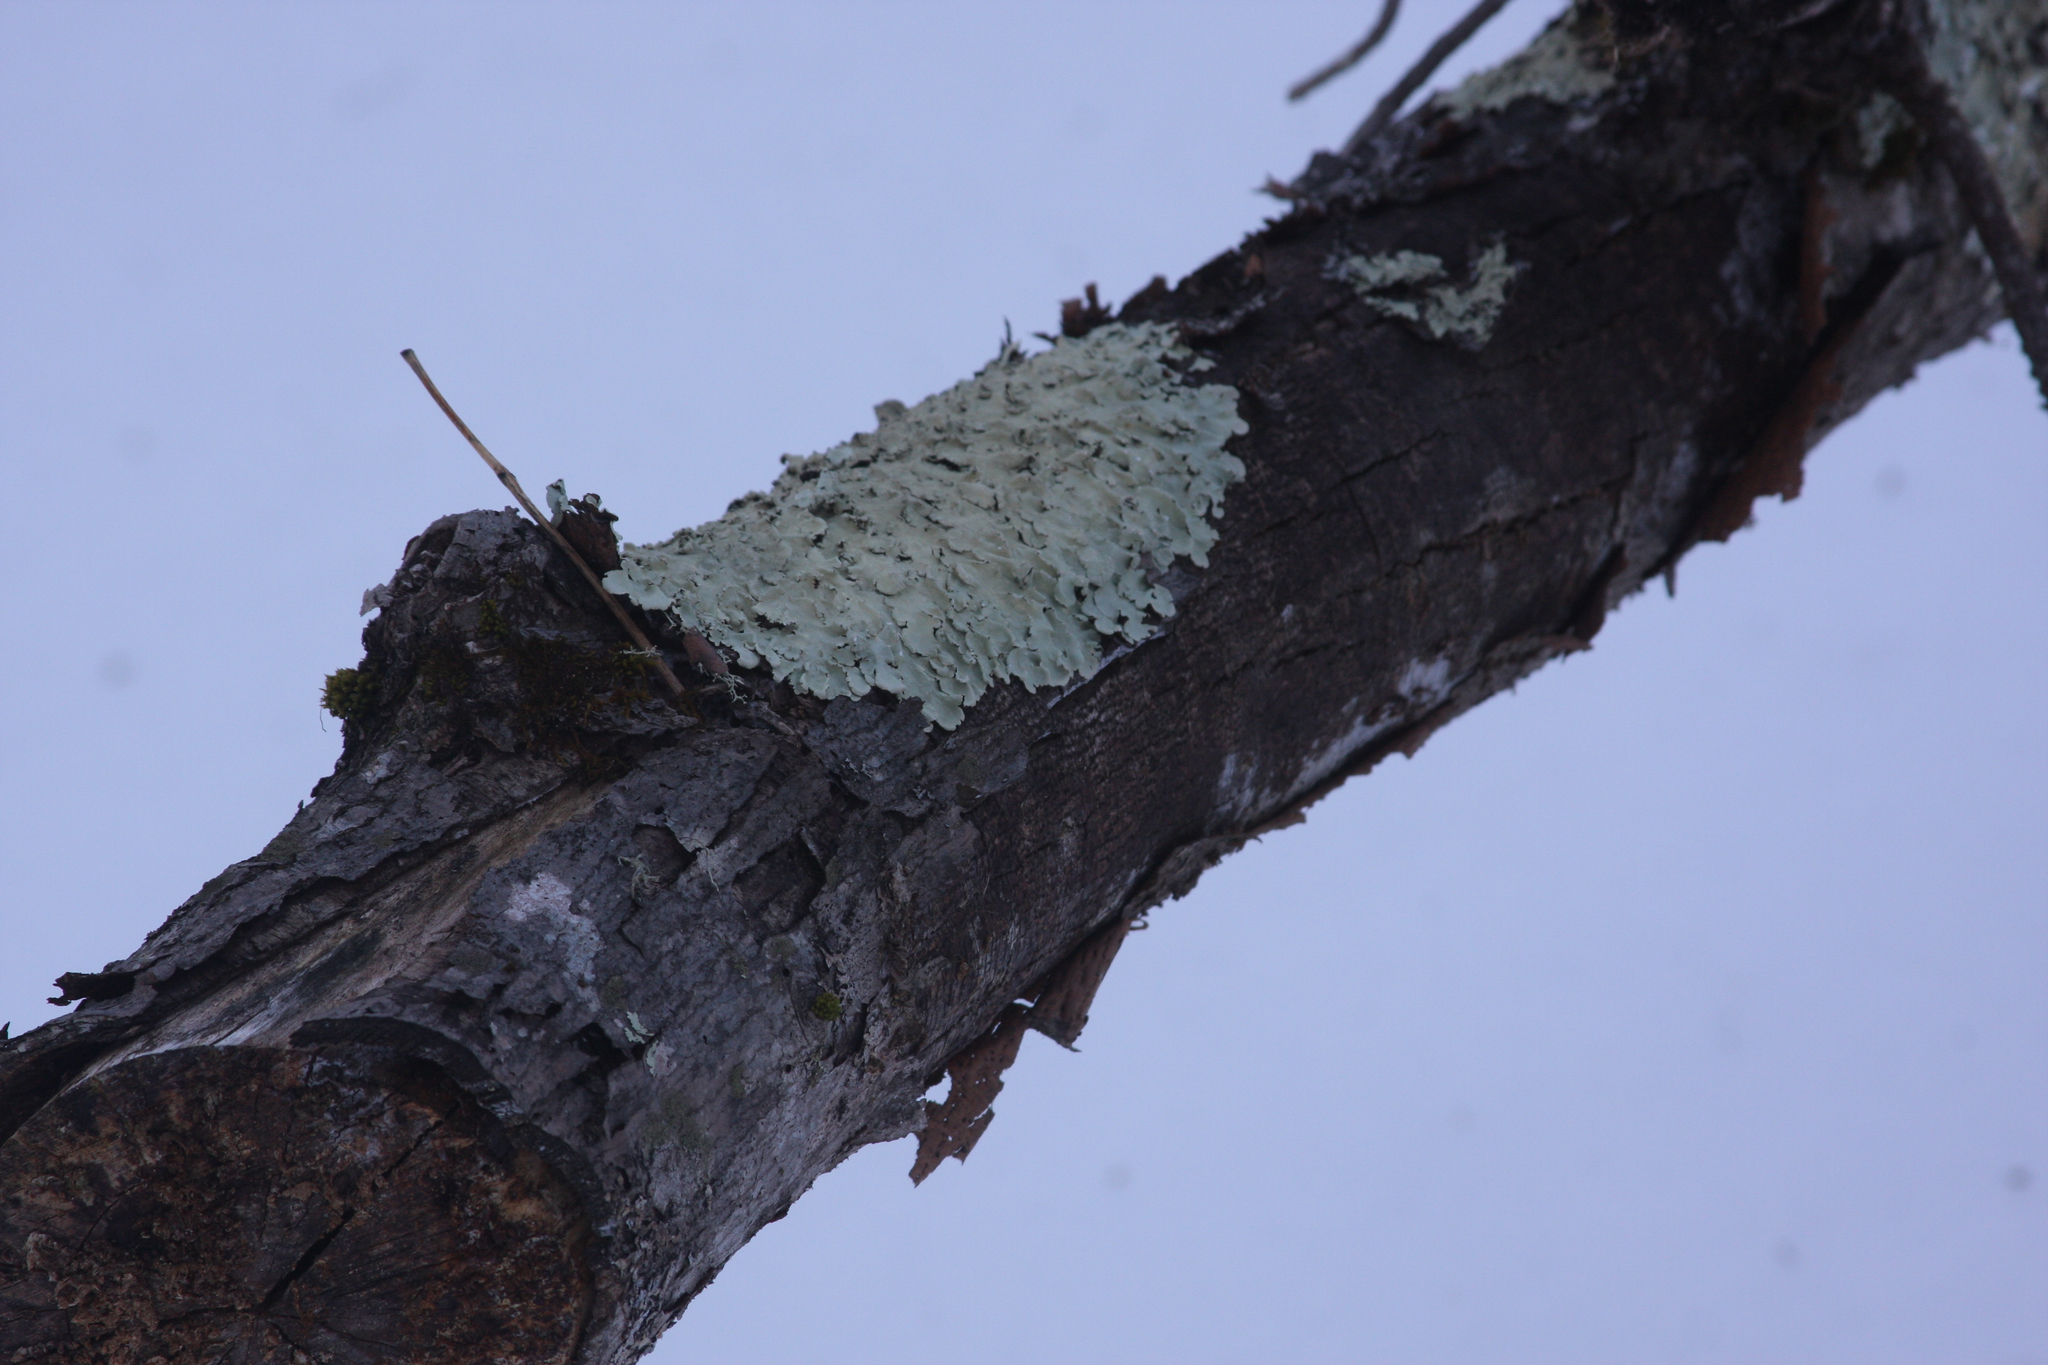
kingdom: Fungi
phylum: Ascomycota
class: Lecanoromycetes
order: Lecanorales
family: Parmeliaceae
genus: Flavoparmelia
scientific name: Flavoparmelia caperata
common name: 40-mile per hour lichen
